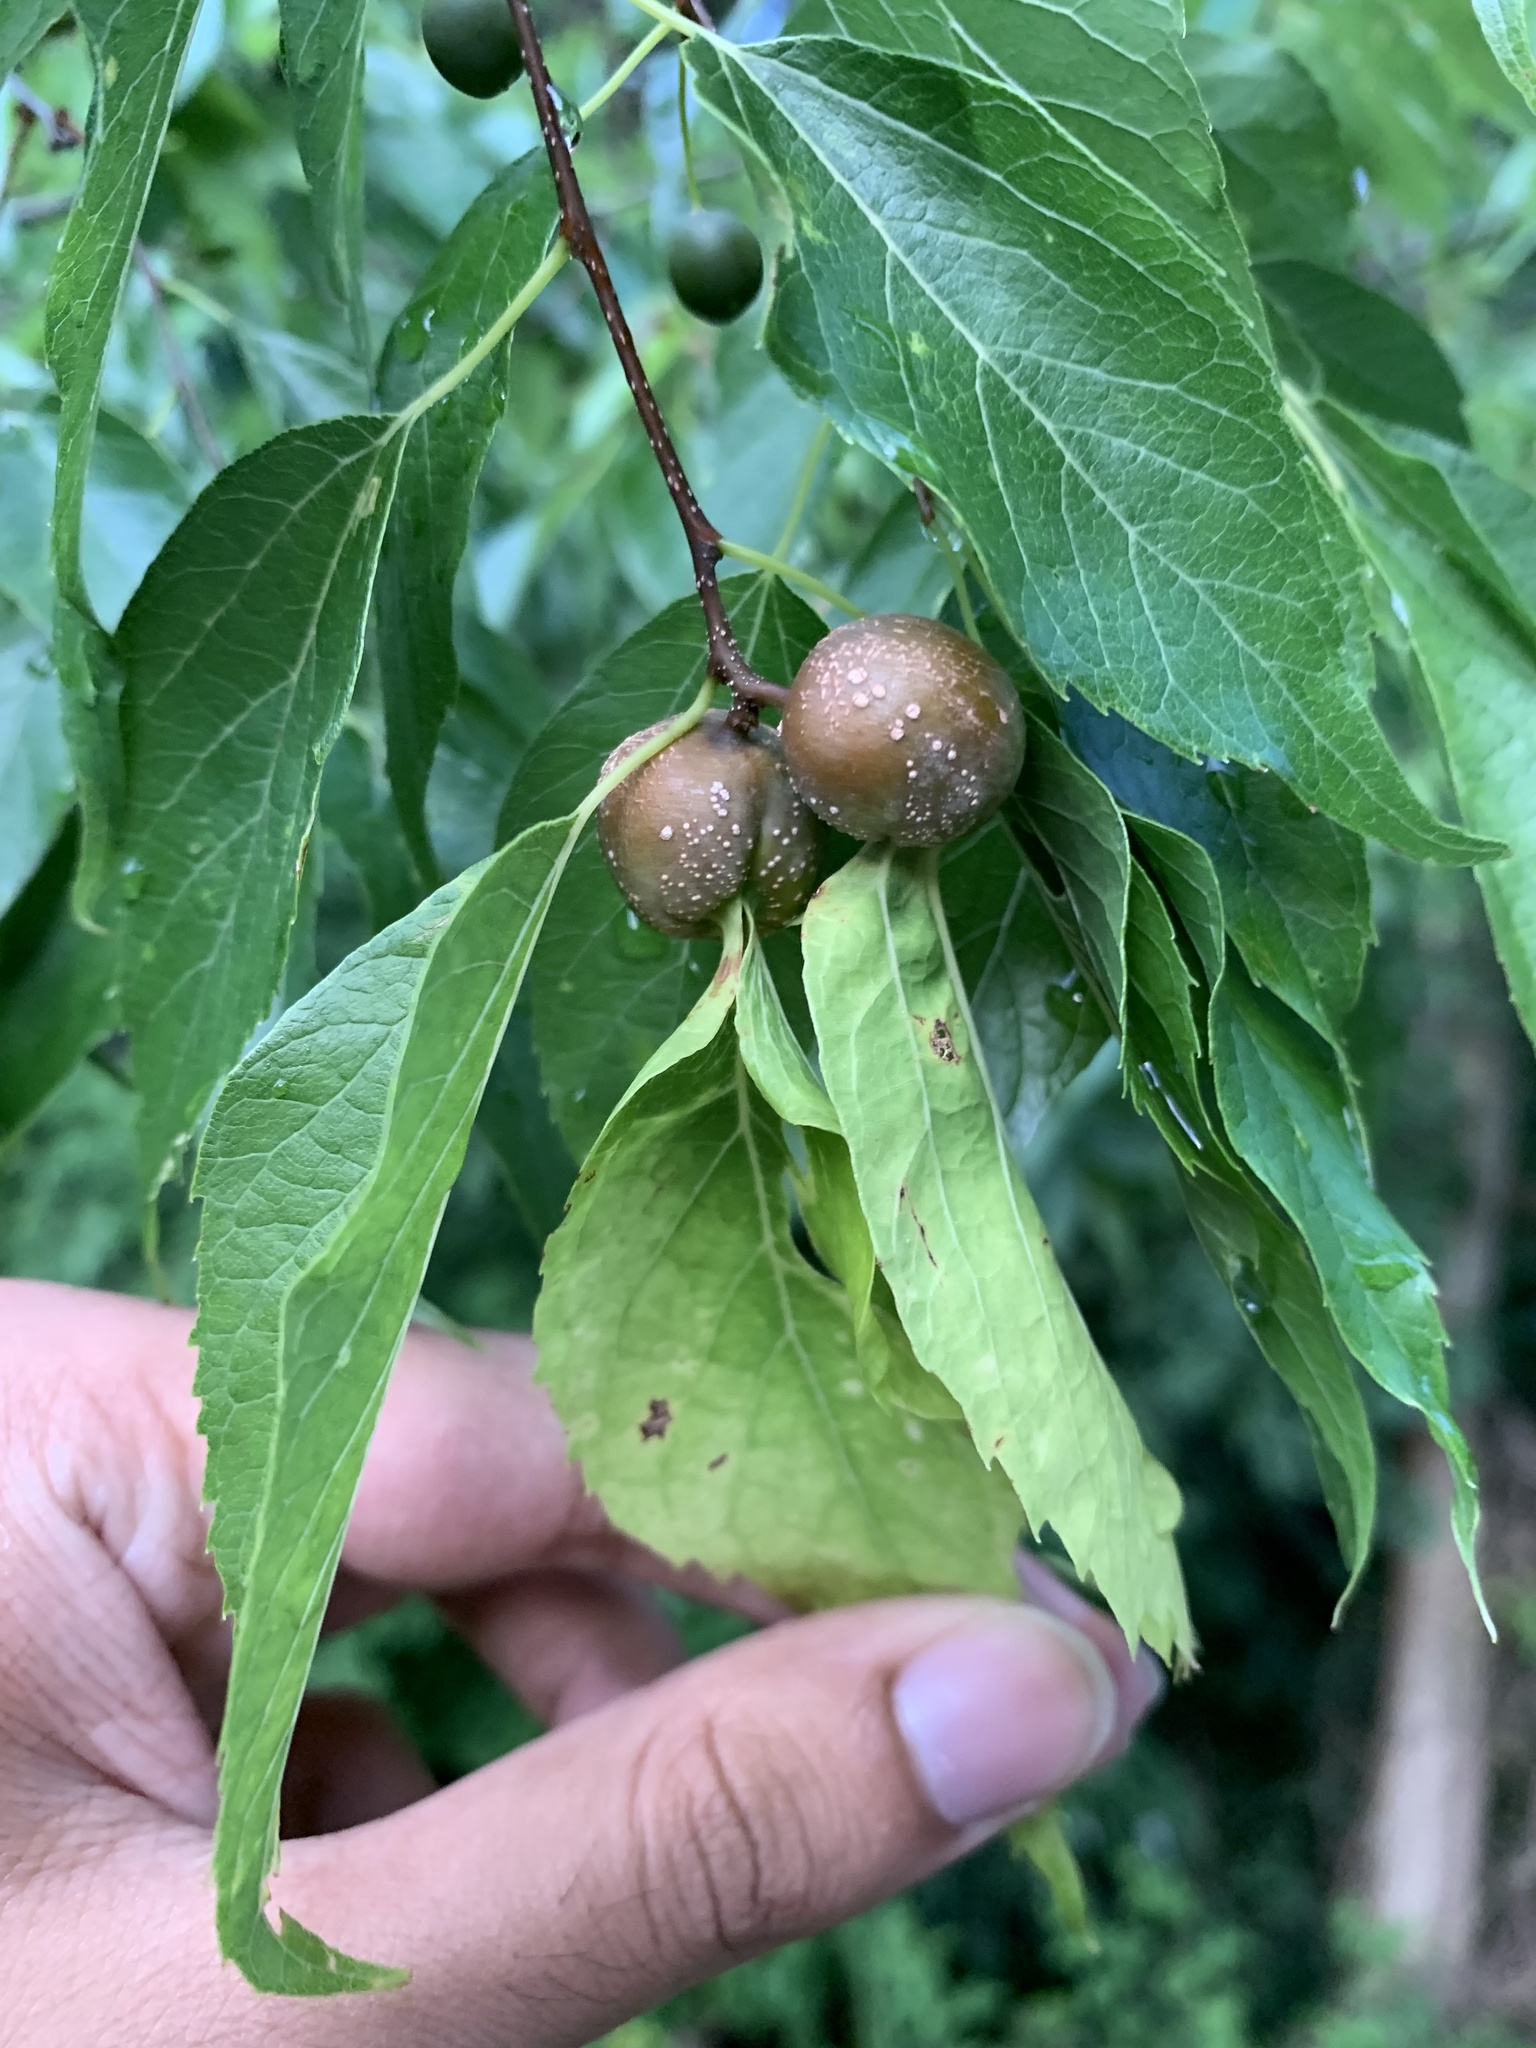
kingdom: Animalia
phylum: Arthropoda
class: Insecta
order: Hemiptera
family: Aphalaridae
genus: Pachypsylla
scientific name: Pachypsylla venusta
